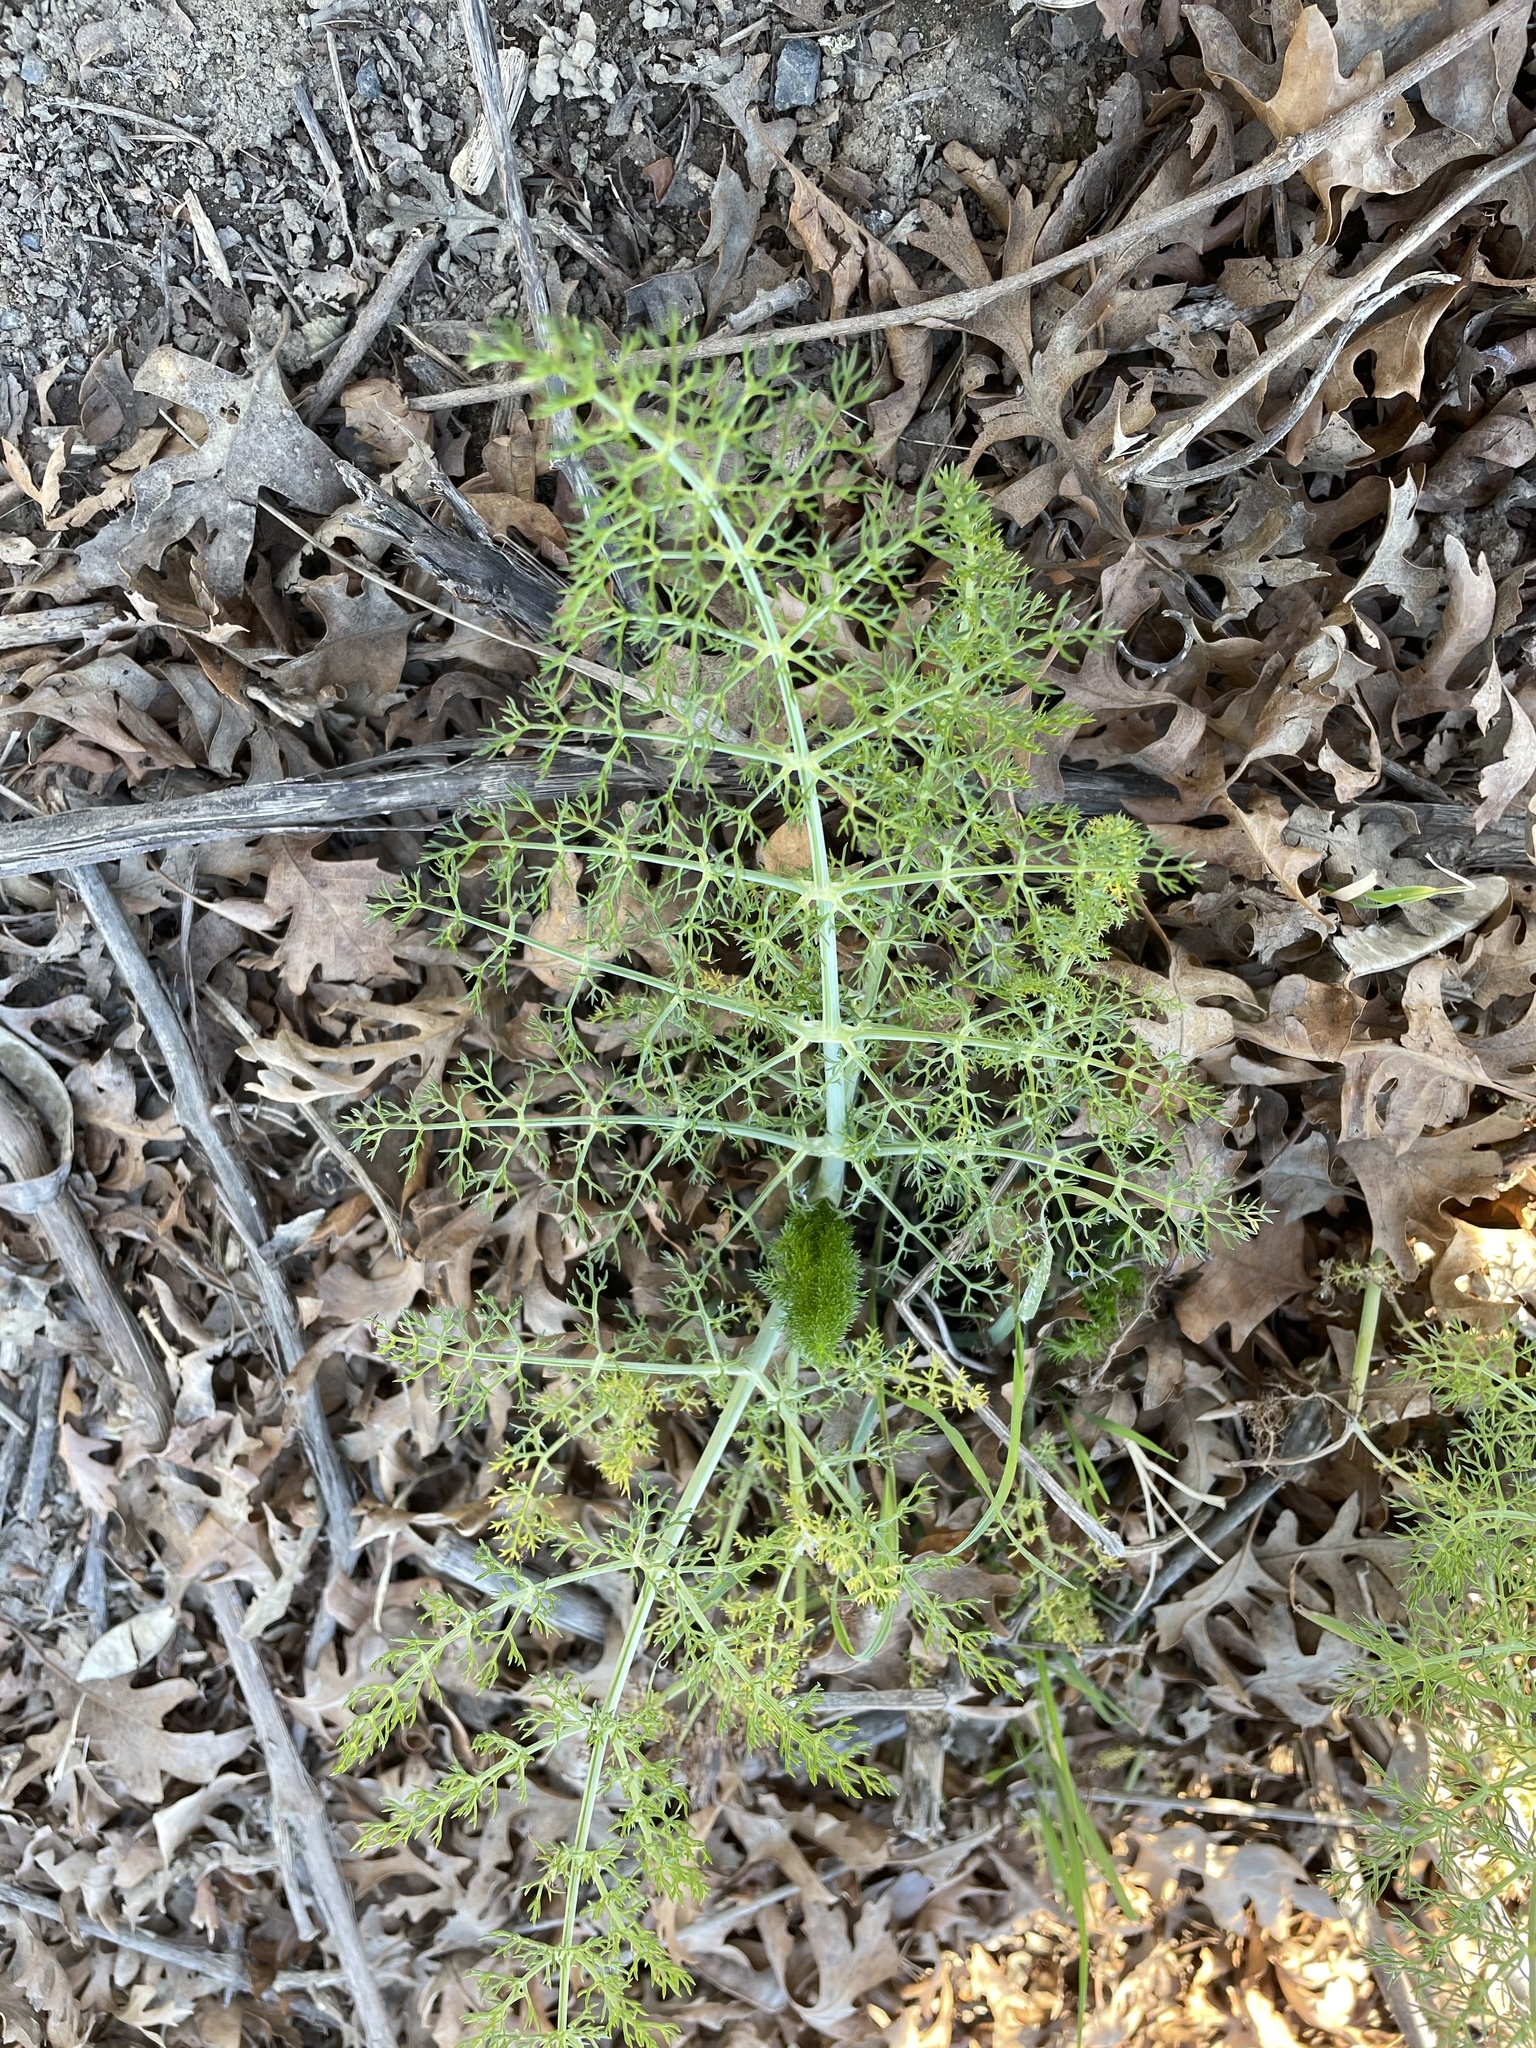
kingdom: Plantae
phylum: Tracheophyta
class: Magnoliopsida
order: Apiales
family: Apiaceae
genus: Foeniculum
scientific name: Foeniculum vulgare
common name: Fennel
